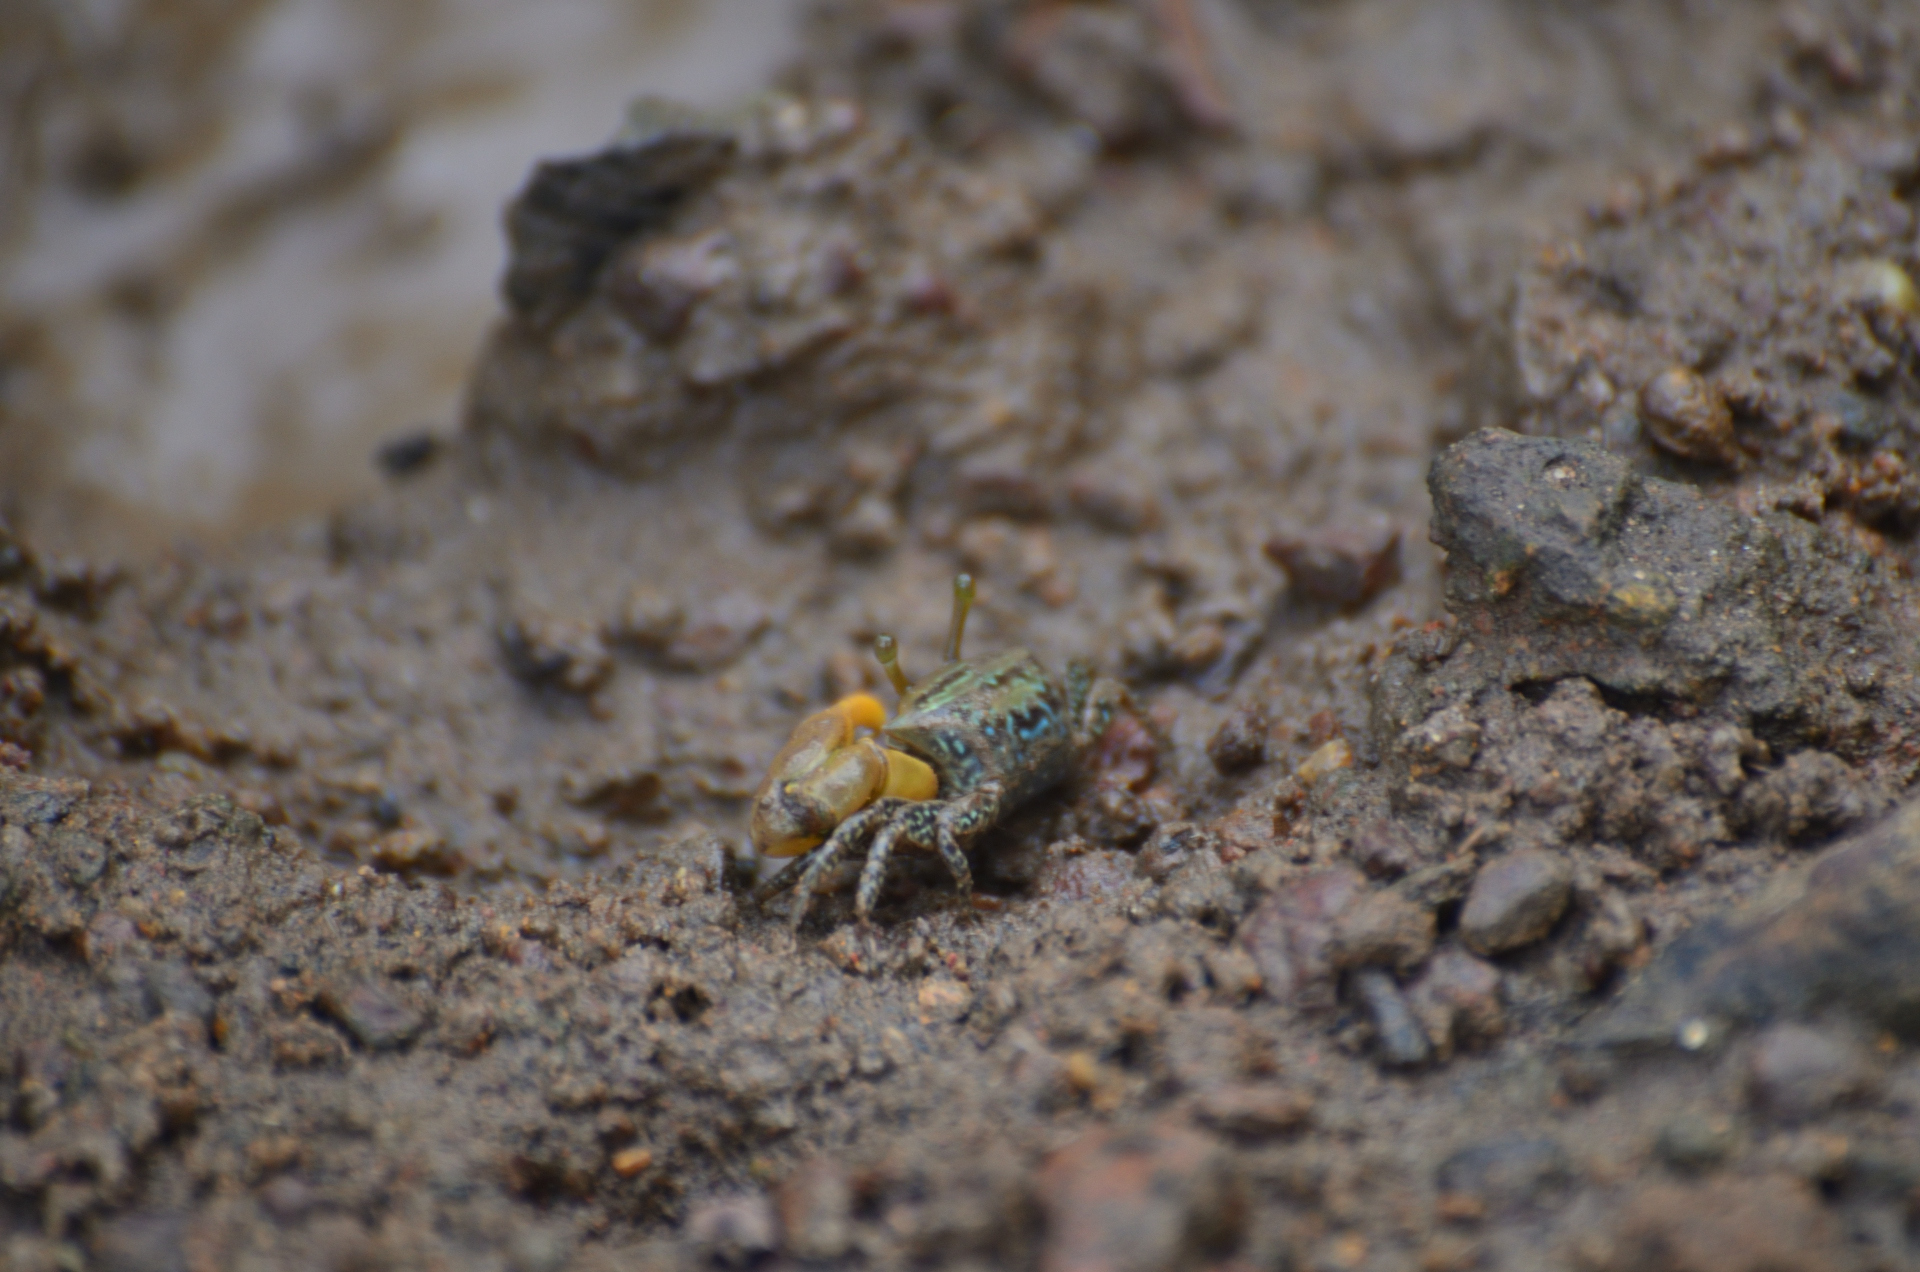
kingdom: Animalia
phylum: Arthropoda
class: Malacostraca
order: Decapoda
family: Ocypodidae
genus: Austruca
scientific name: Austruca variegata
